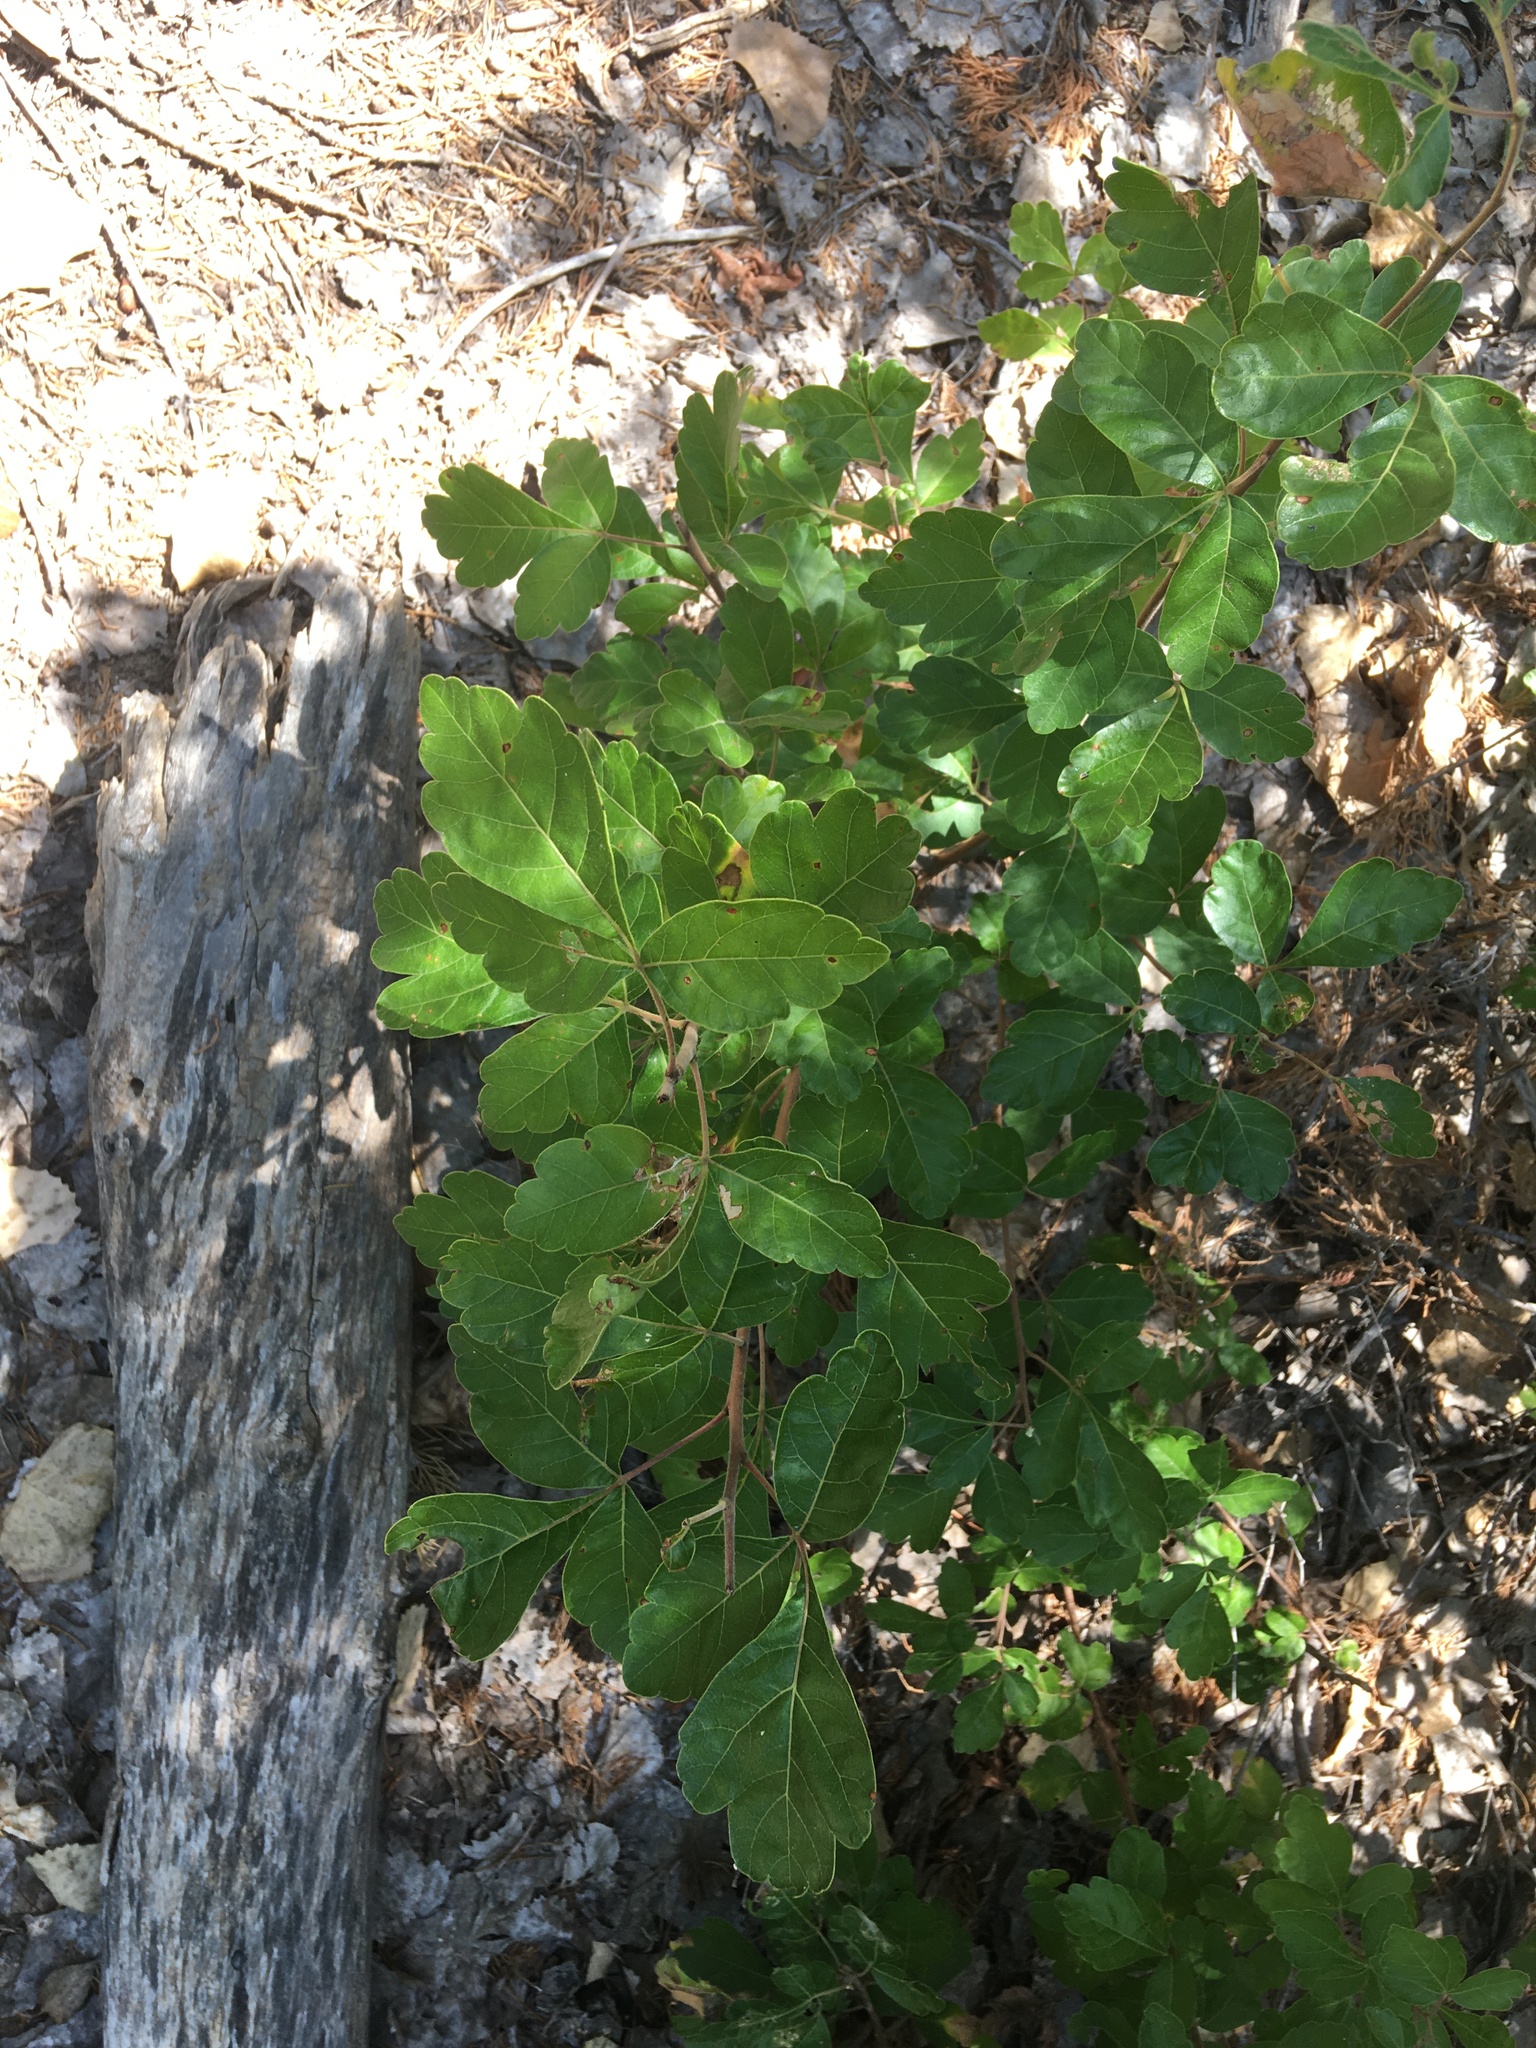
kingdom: Plantae
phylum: Tracheophyta
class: Magnoliopsida
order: Sapindales
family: Anacardiaceae
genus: Rhus
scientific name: Rhus aromatica
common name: Aromatic sumac
